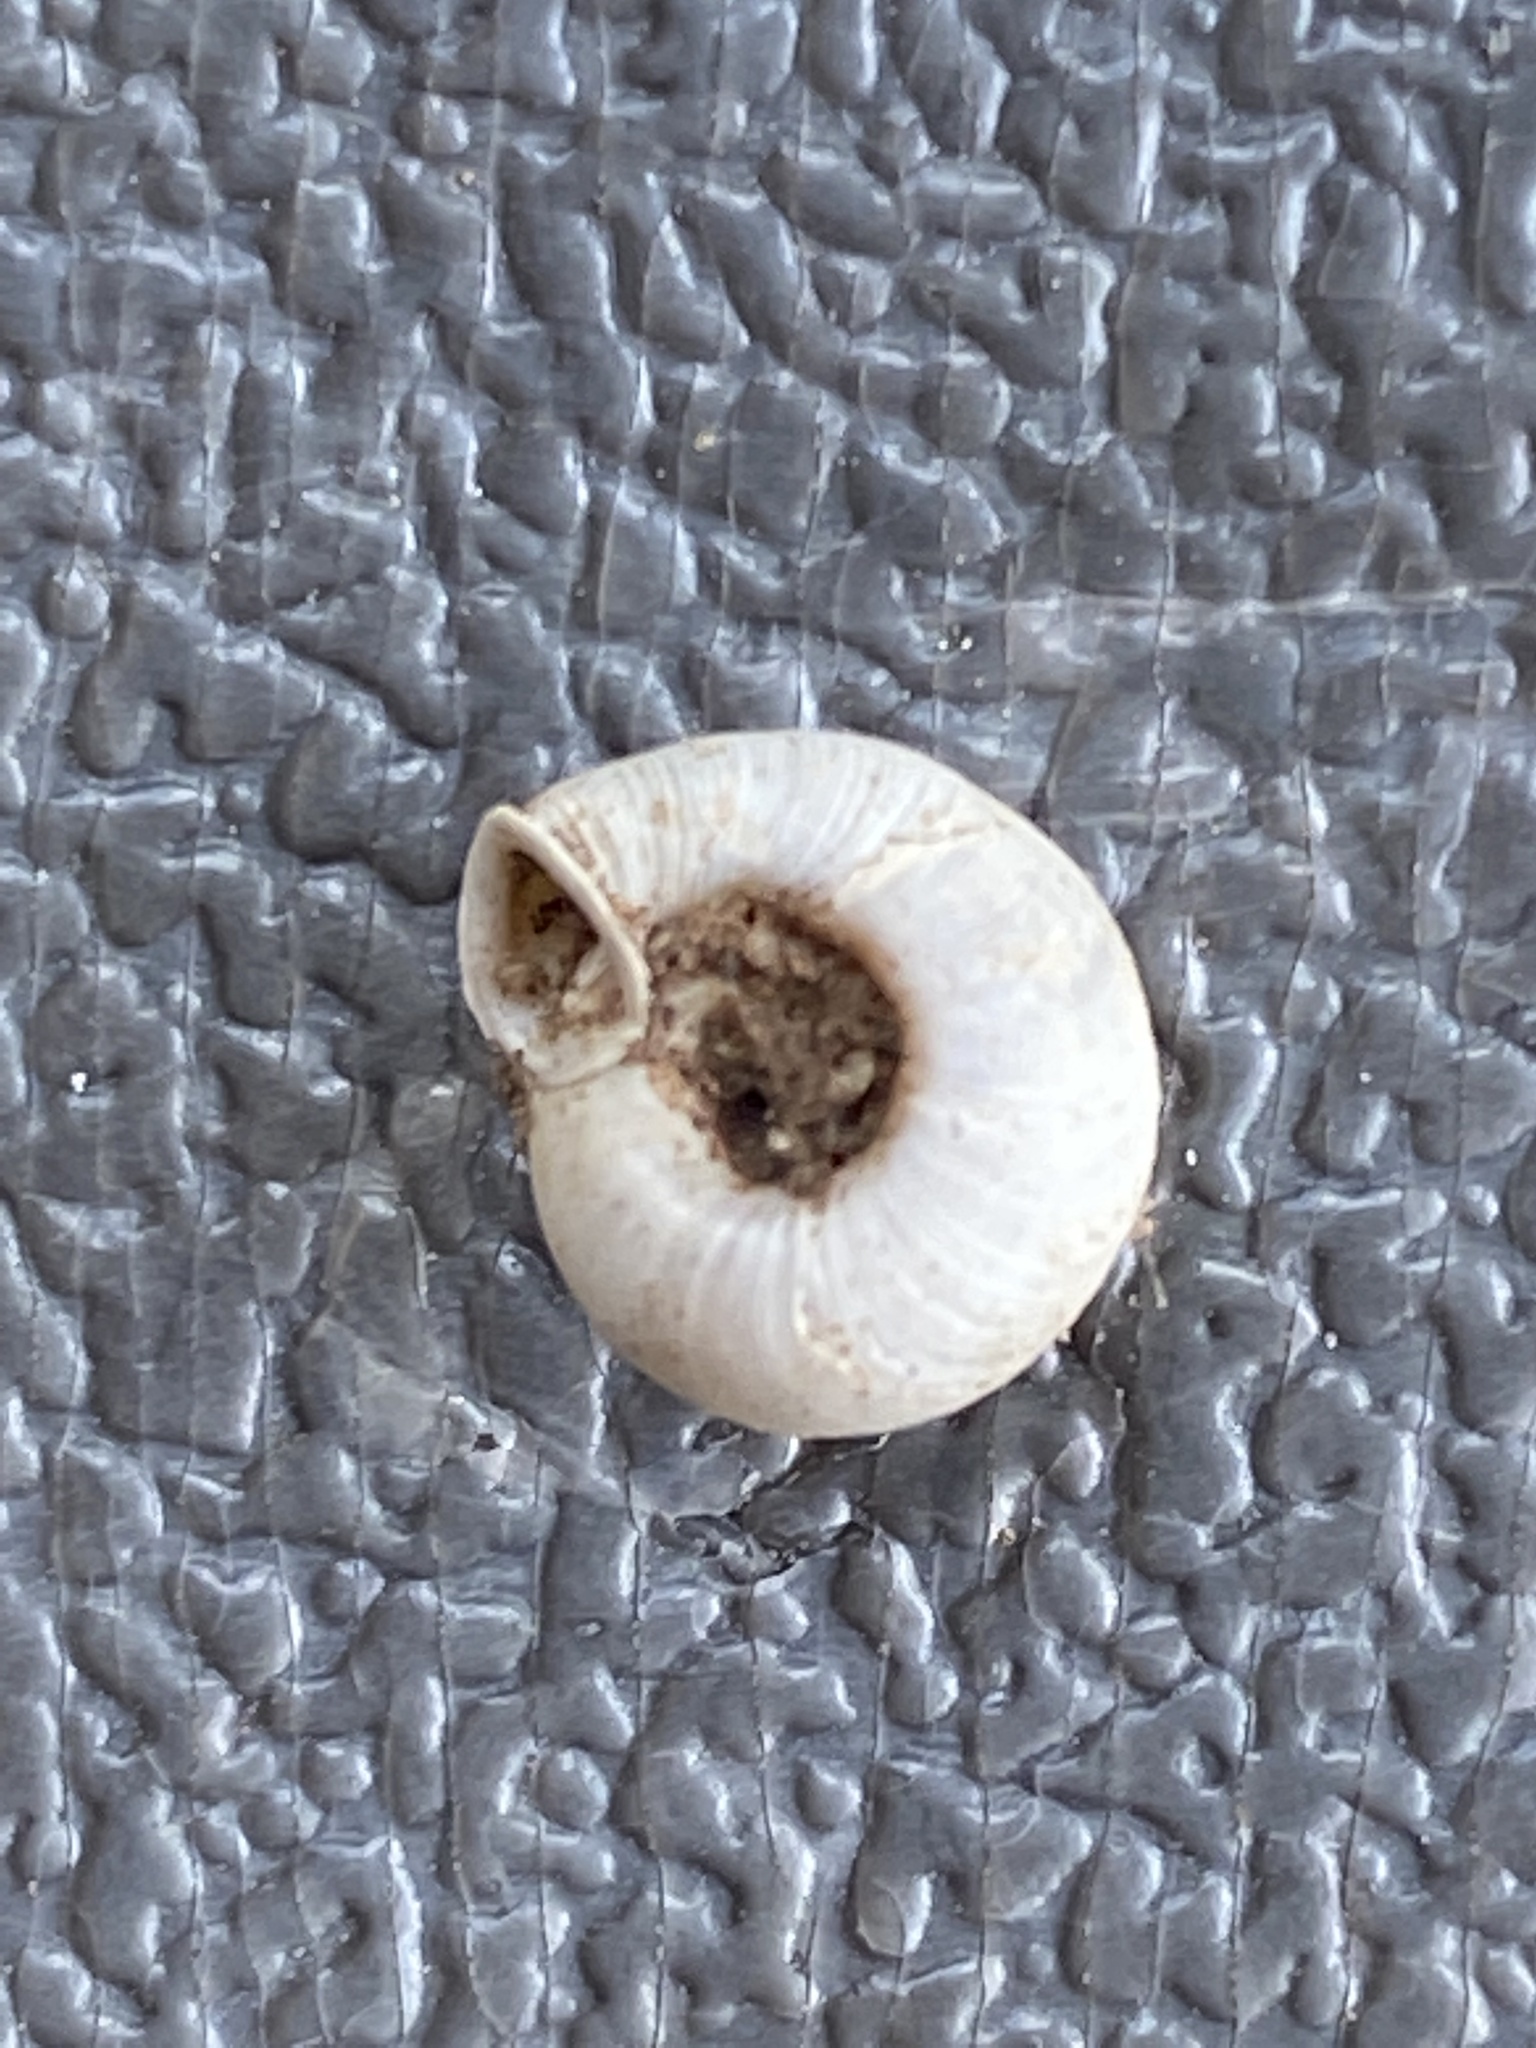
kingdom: Animalia
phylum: Mollusca
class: Gastropoda
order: Stylommatophora
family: Polygyridae
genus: Polygyra
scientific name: Polygyra cereolus
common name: Southern flatcone snail
